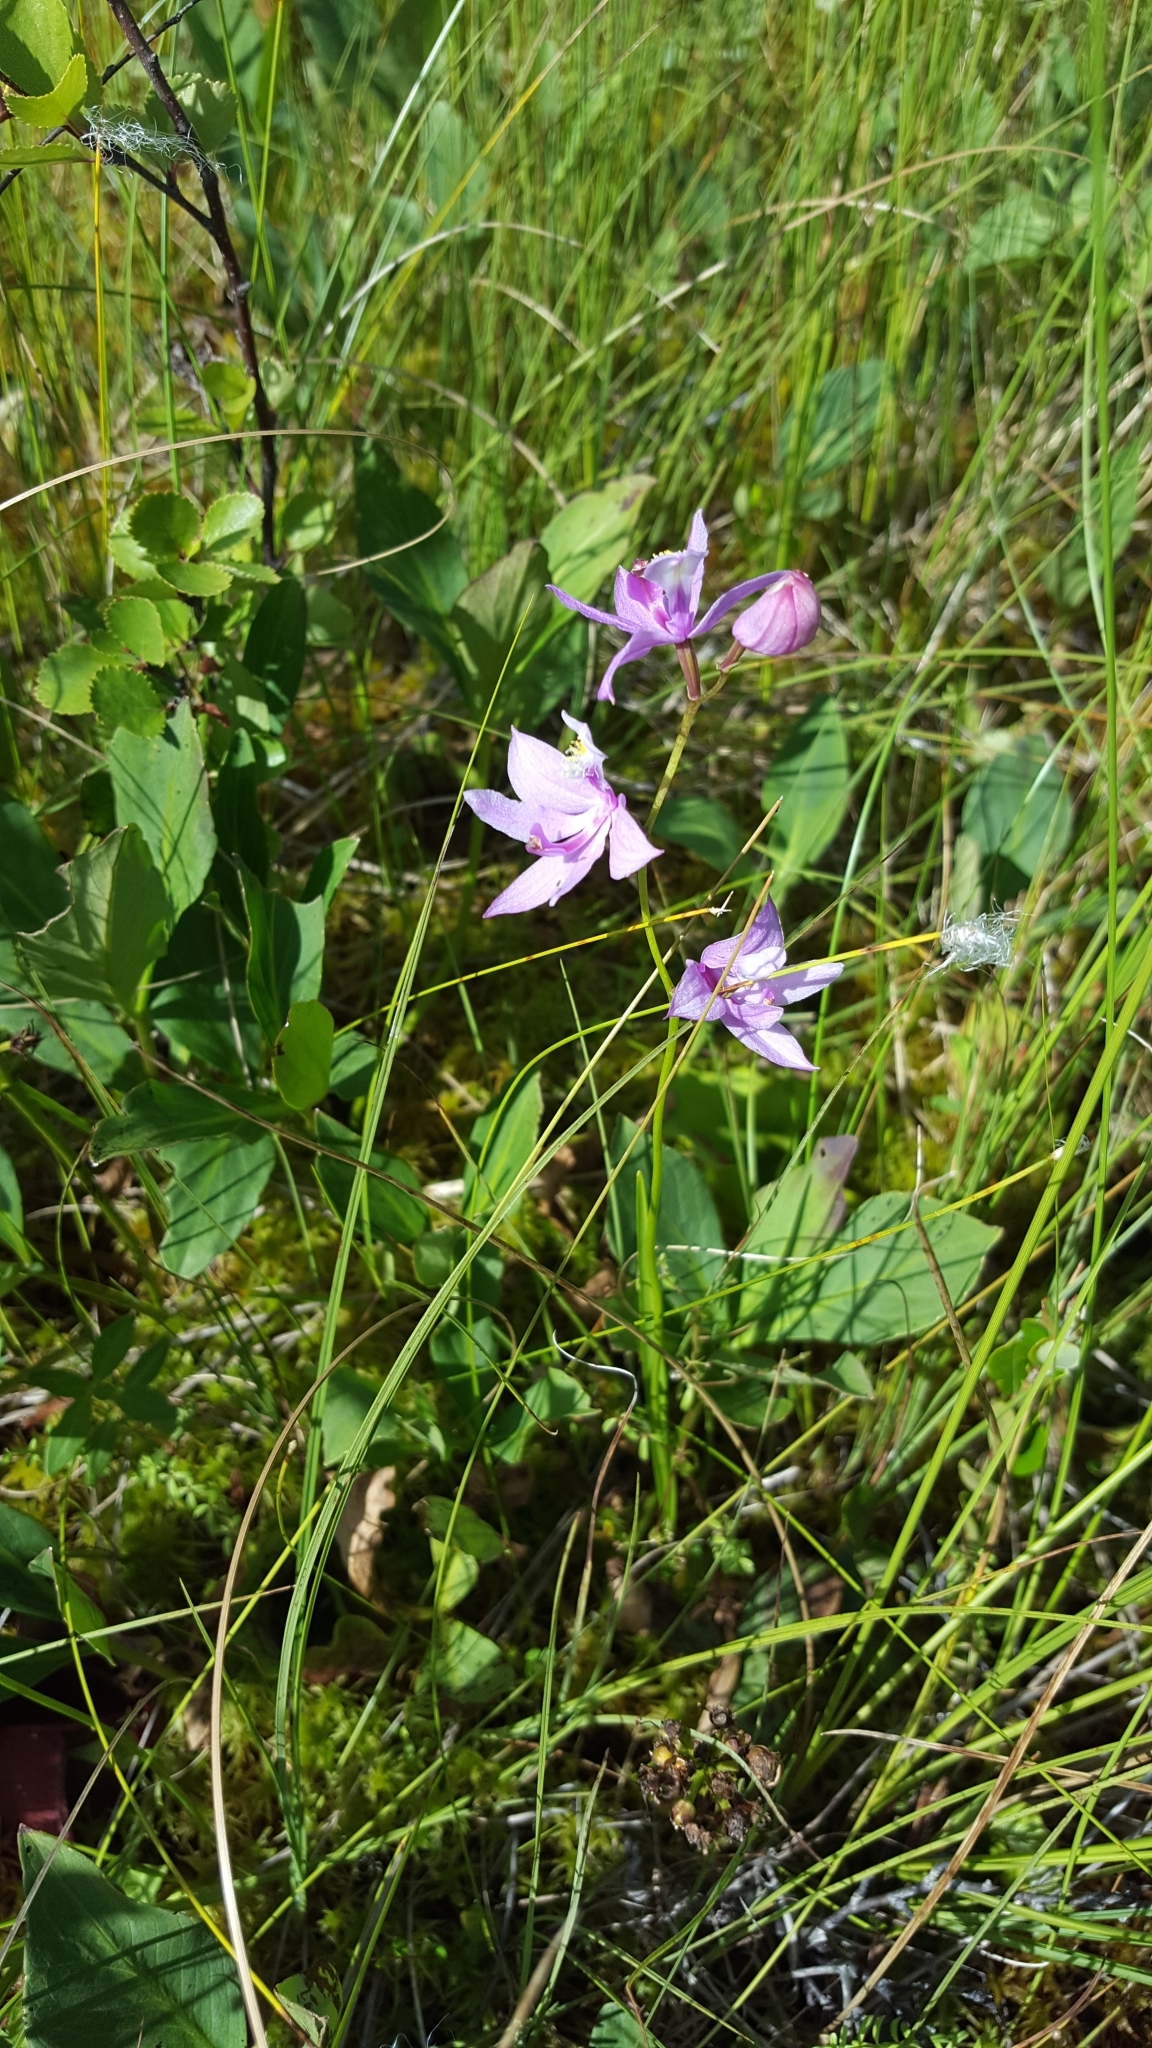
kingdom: Plantae
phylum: Tracheophyta
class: Liliopsida
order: Asparagales
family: Orchidaceae
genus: Calopogon
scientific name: Calopogon tuberosus
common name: Grass-pink
